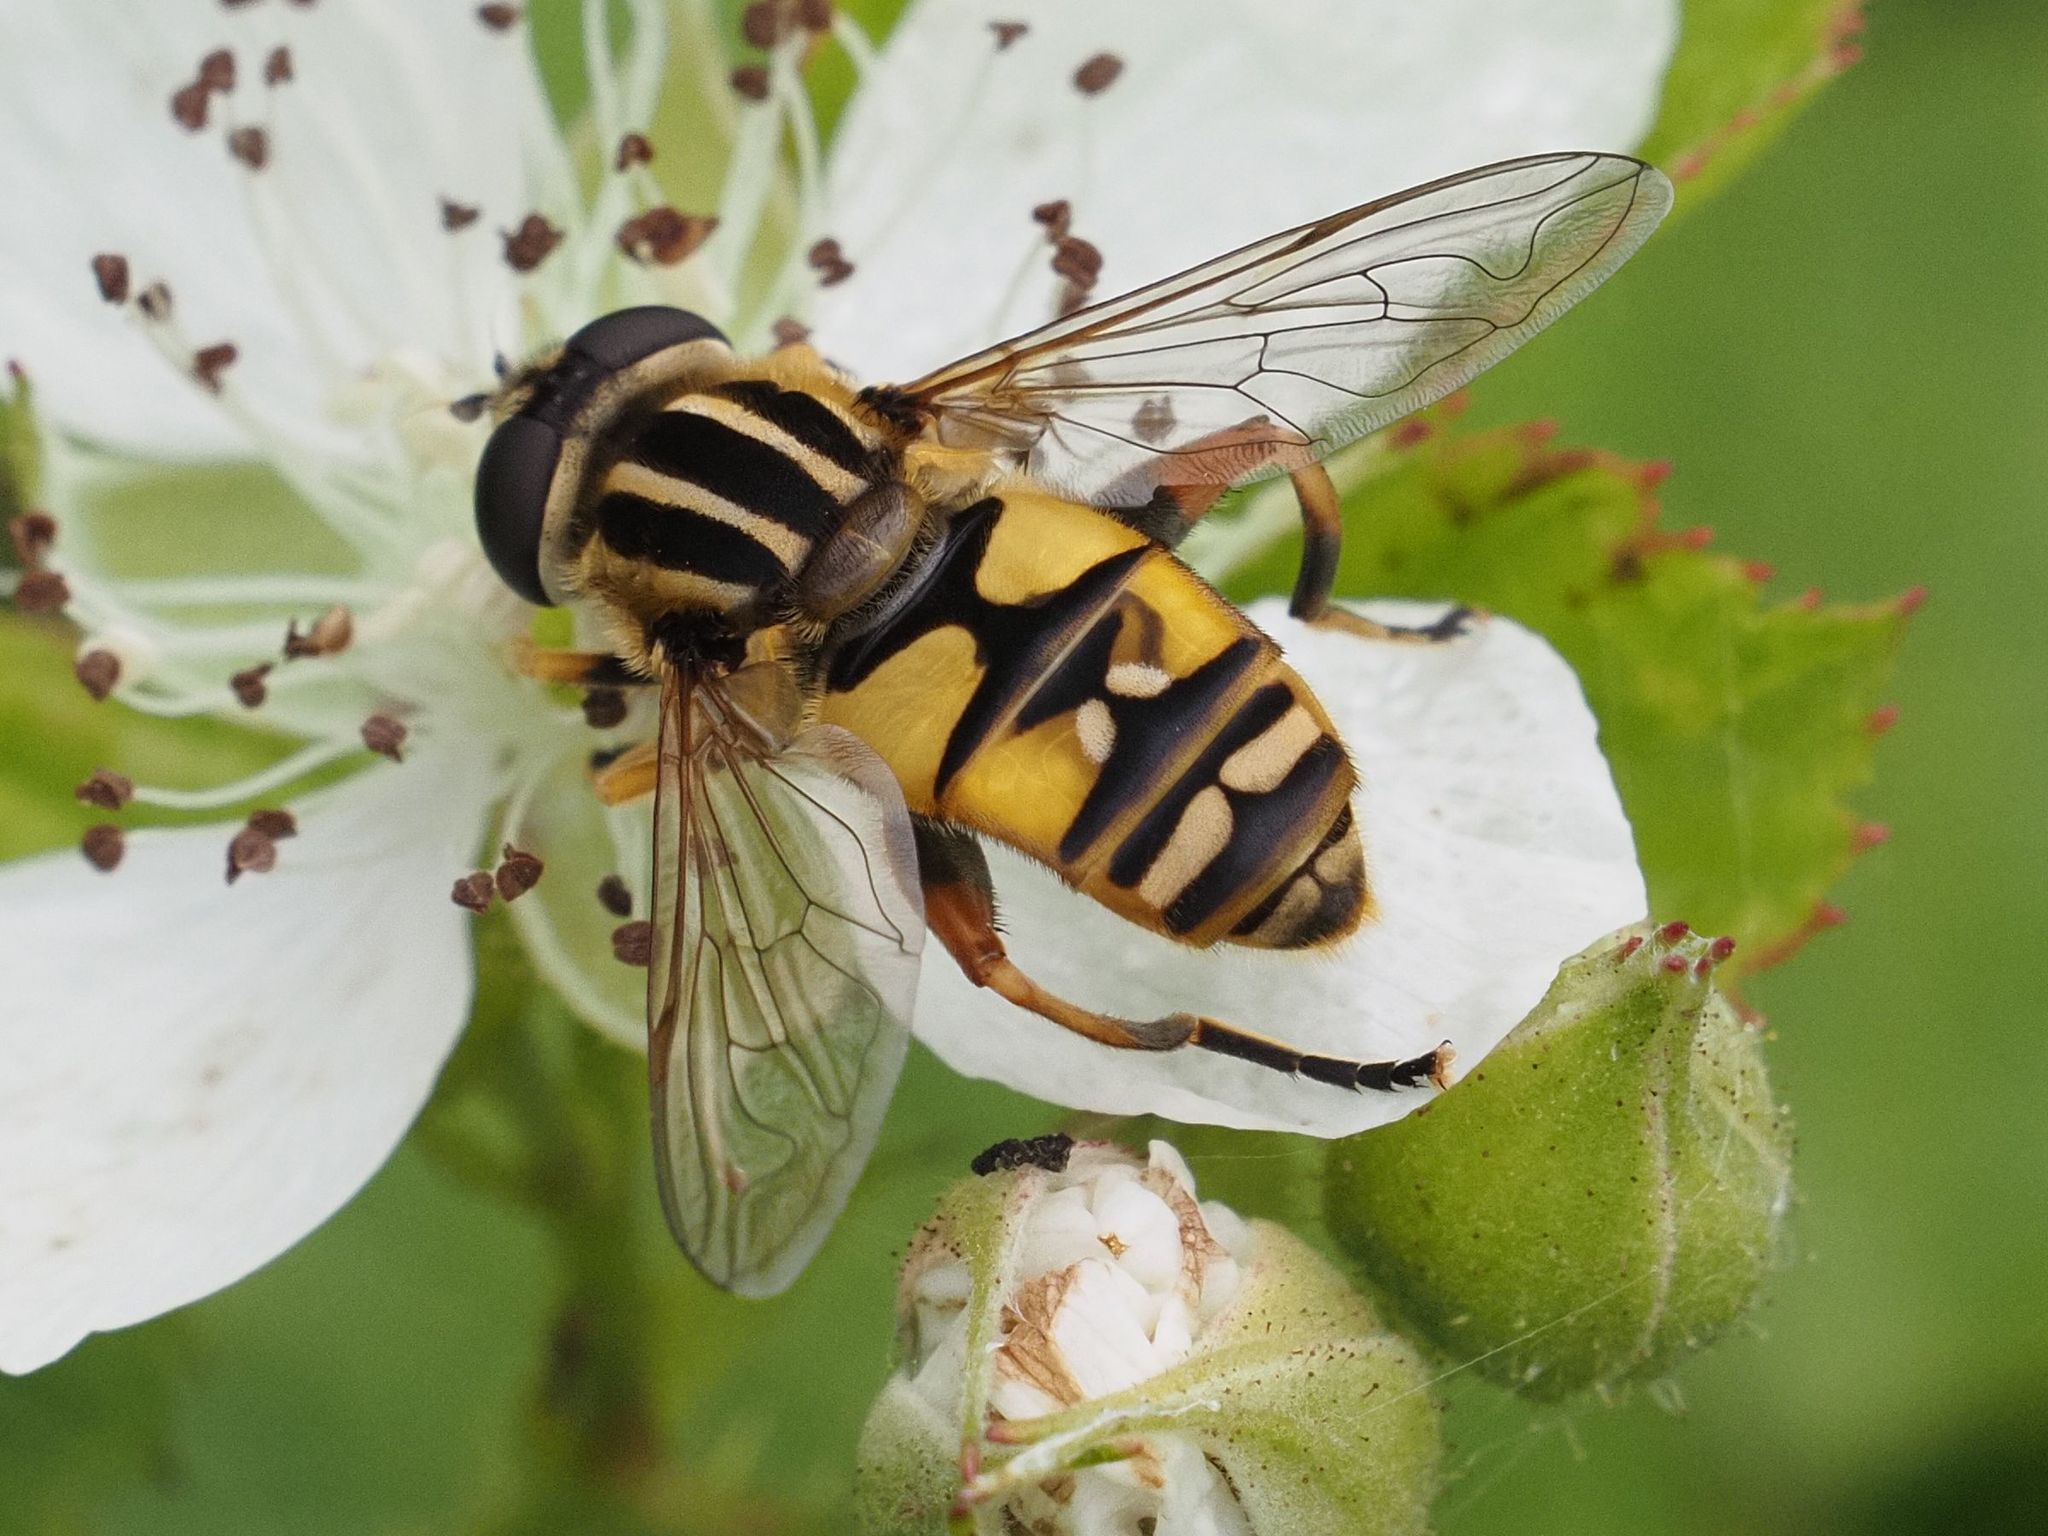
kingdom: Animalia
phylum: Arthropoda
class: Insecta
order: Diptera
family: Syrphidae
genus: Helophilus
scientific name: Helophilus pendulus
